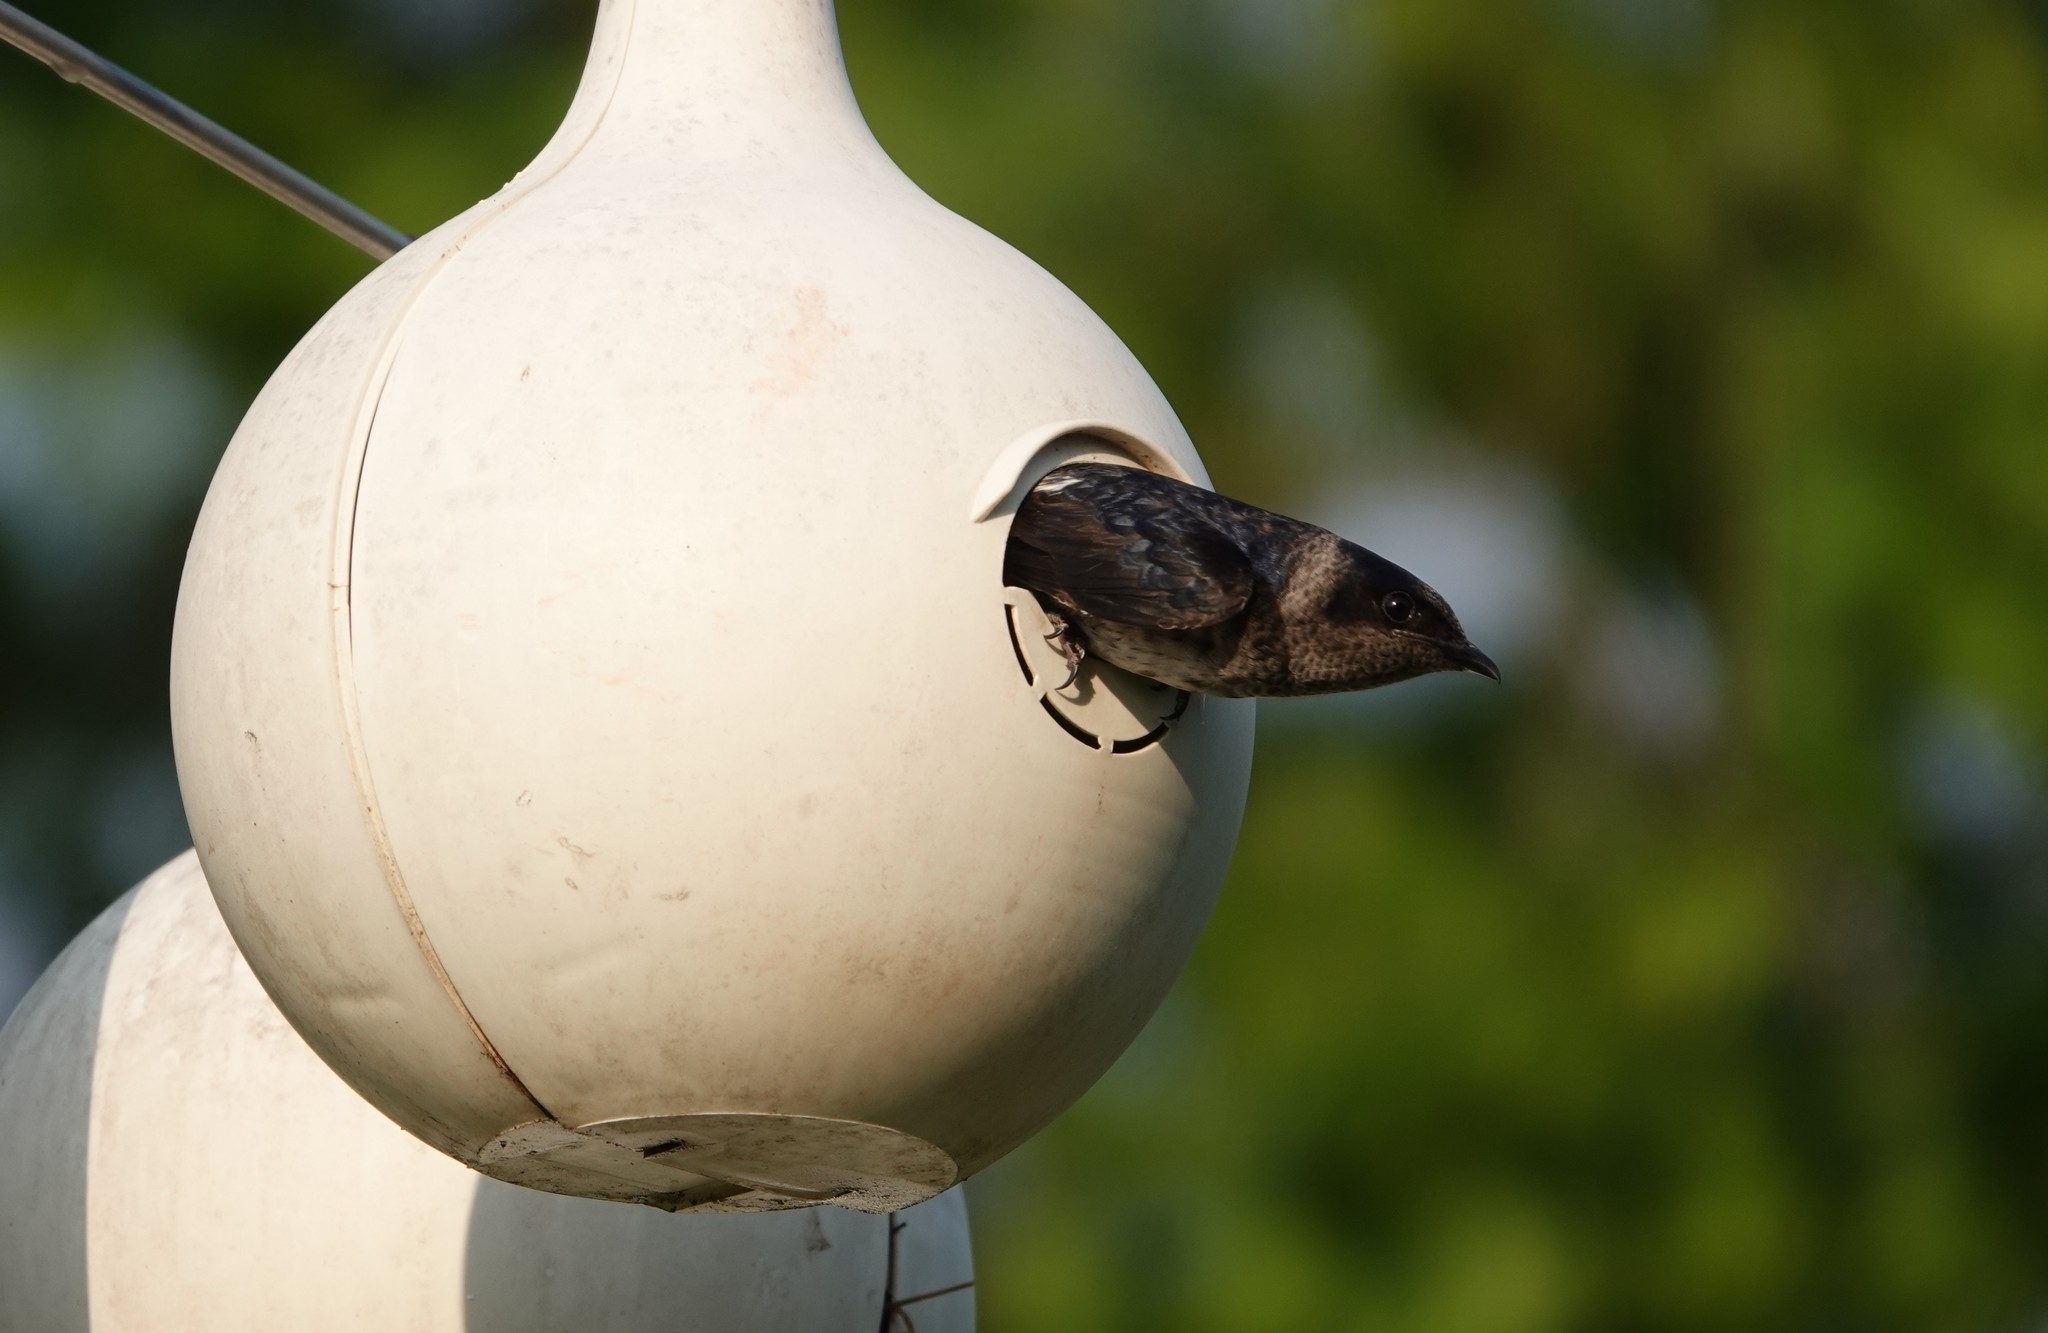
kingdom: Animalia
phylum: Chordata
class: Aves
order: Passeriformes
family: Hirundinidae
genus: Progne
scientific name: Progne subis
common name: Purple martin
